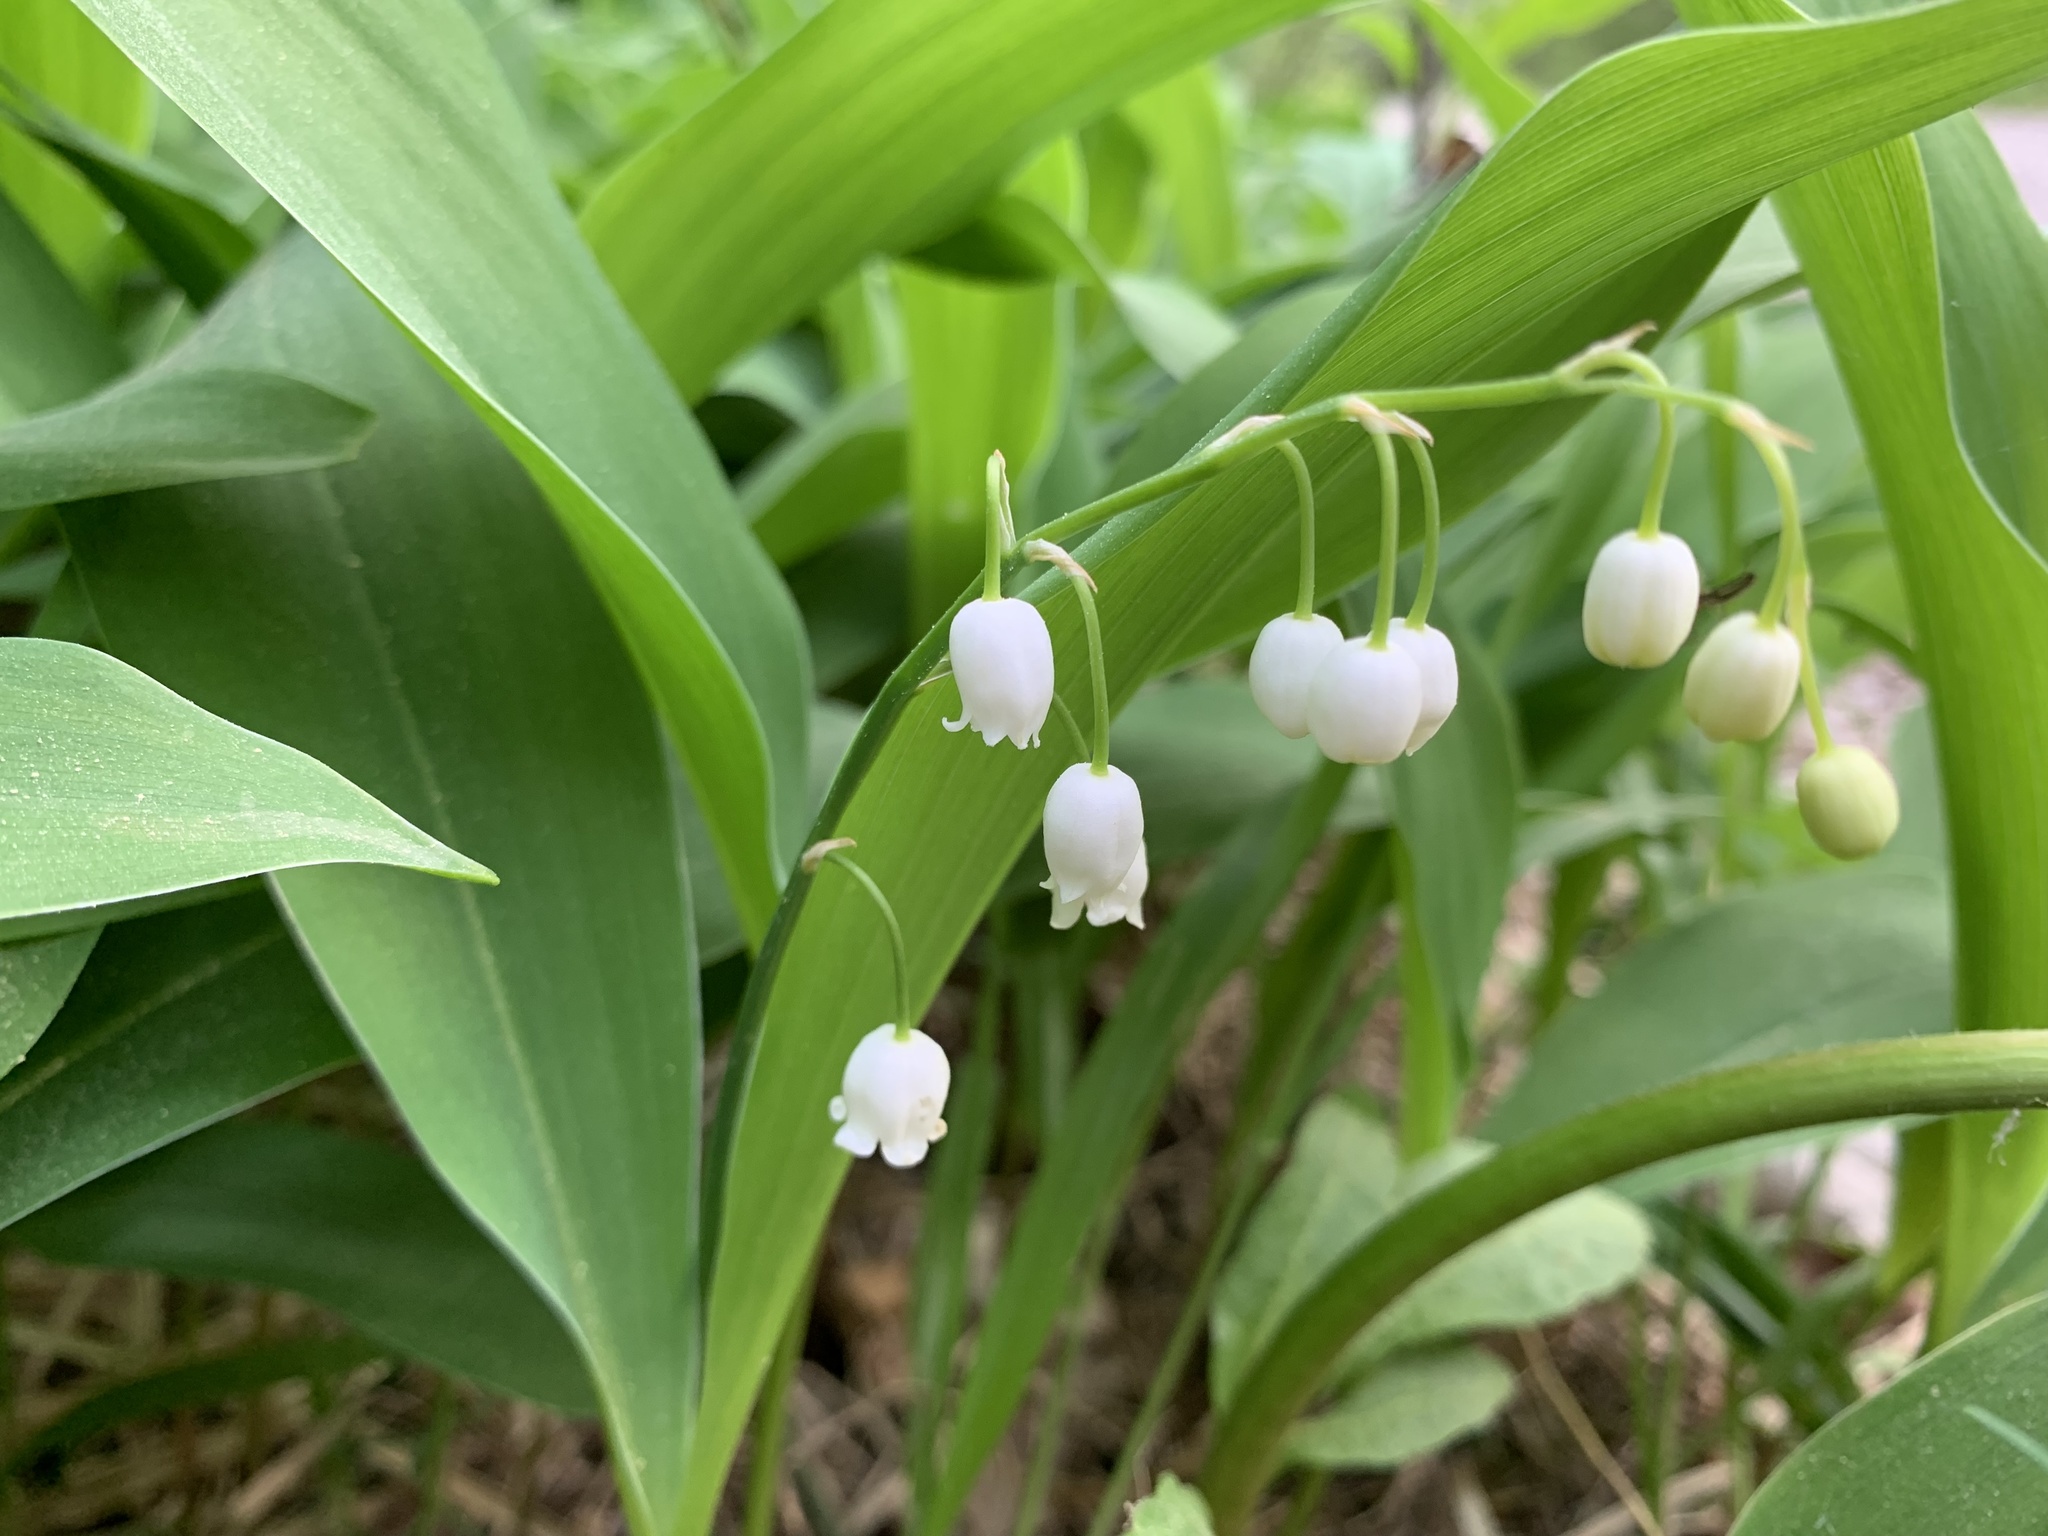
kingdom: Plantae
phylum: Tracheophyta
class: Liliopsida
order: Asparagales
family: Asparagaceae
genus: Convallaria
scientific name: Convallaria majalis
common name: Lily-of-the-valley
